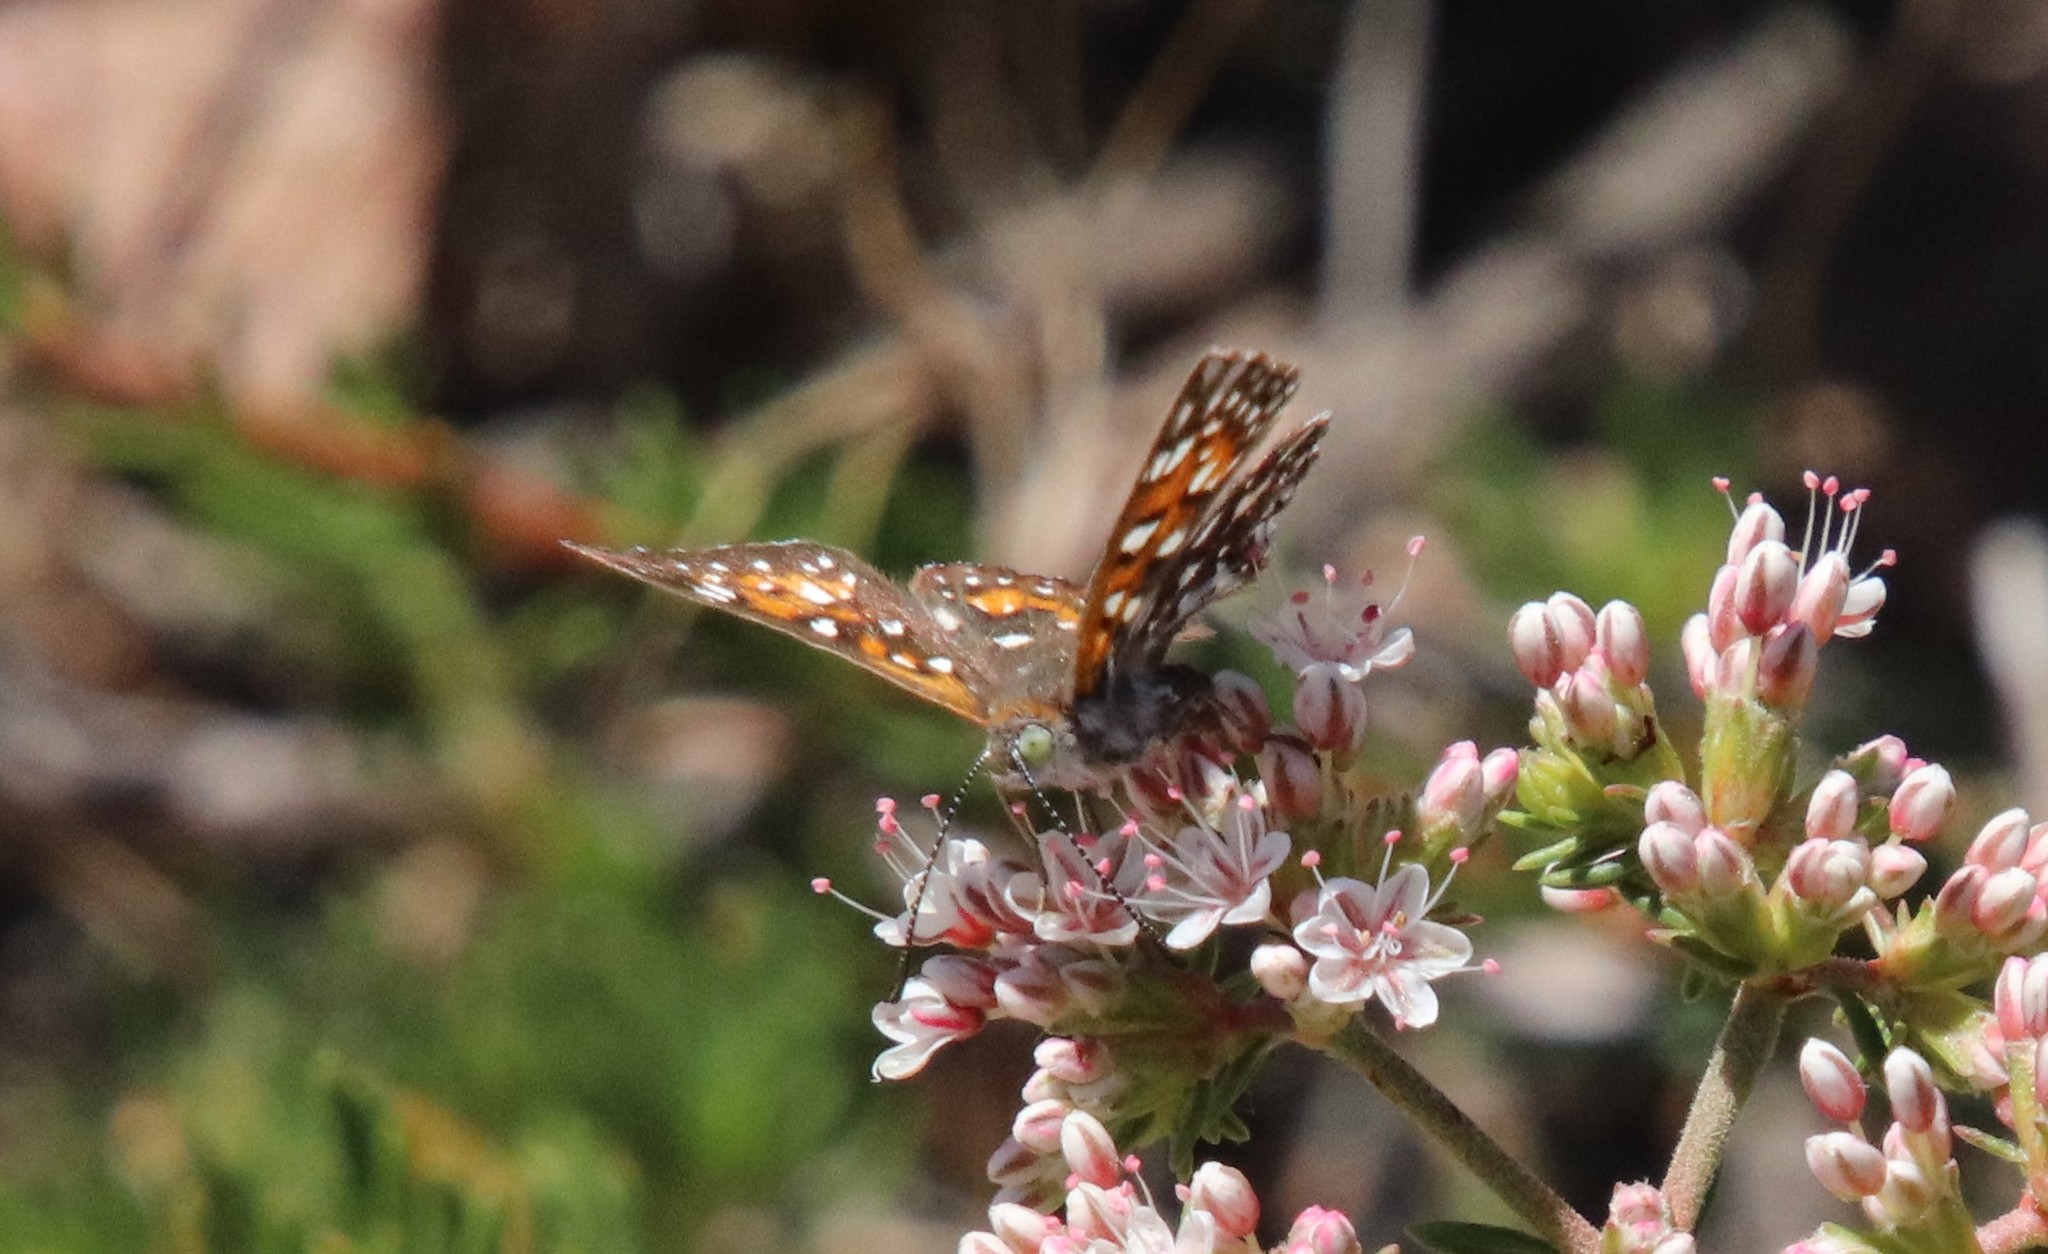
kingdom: Animalia
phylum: Arthropoda
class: Insecta
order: Lepidoptera
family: Riodinidae
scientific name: Riodinidae
